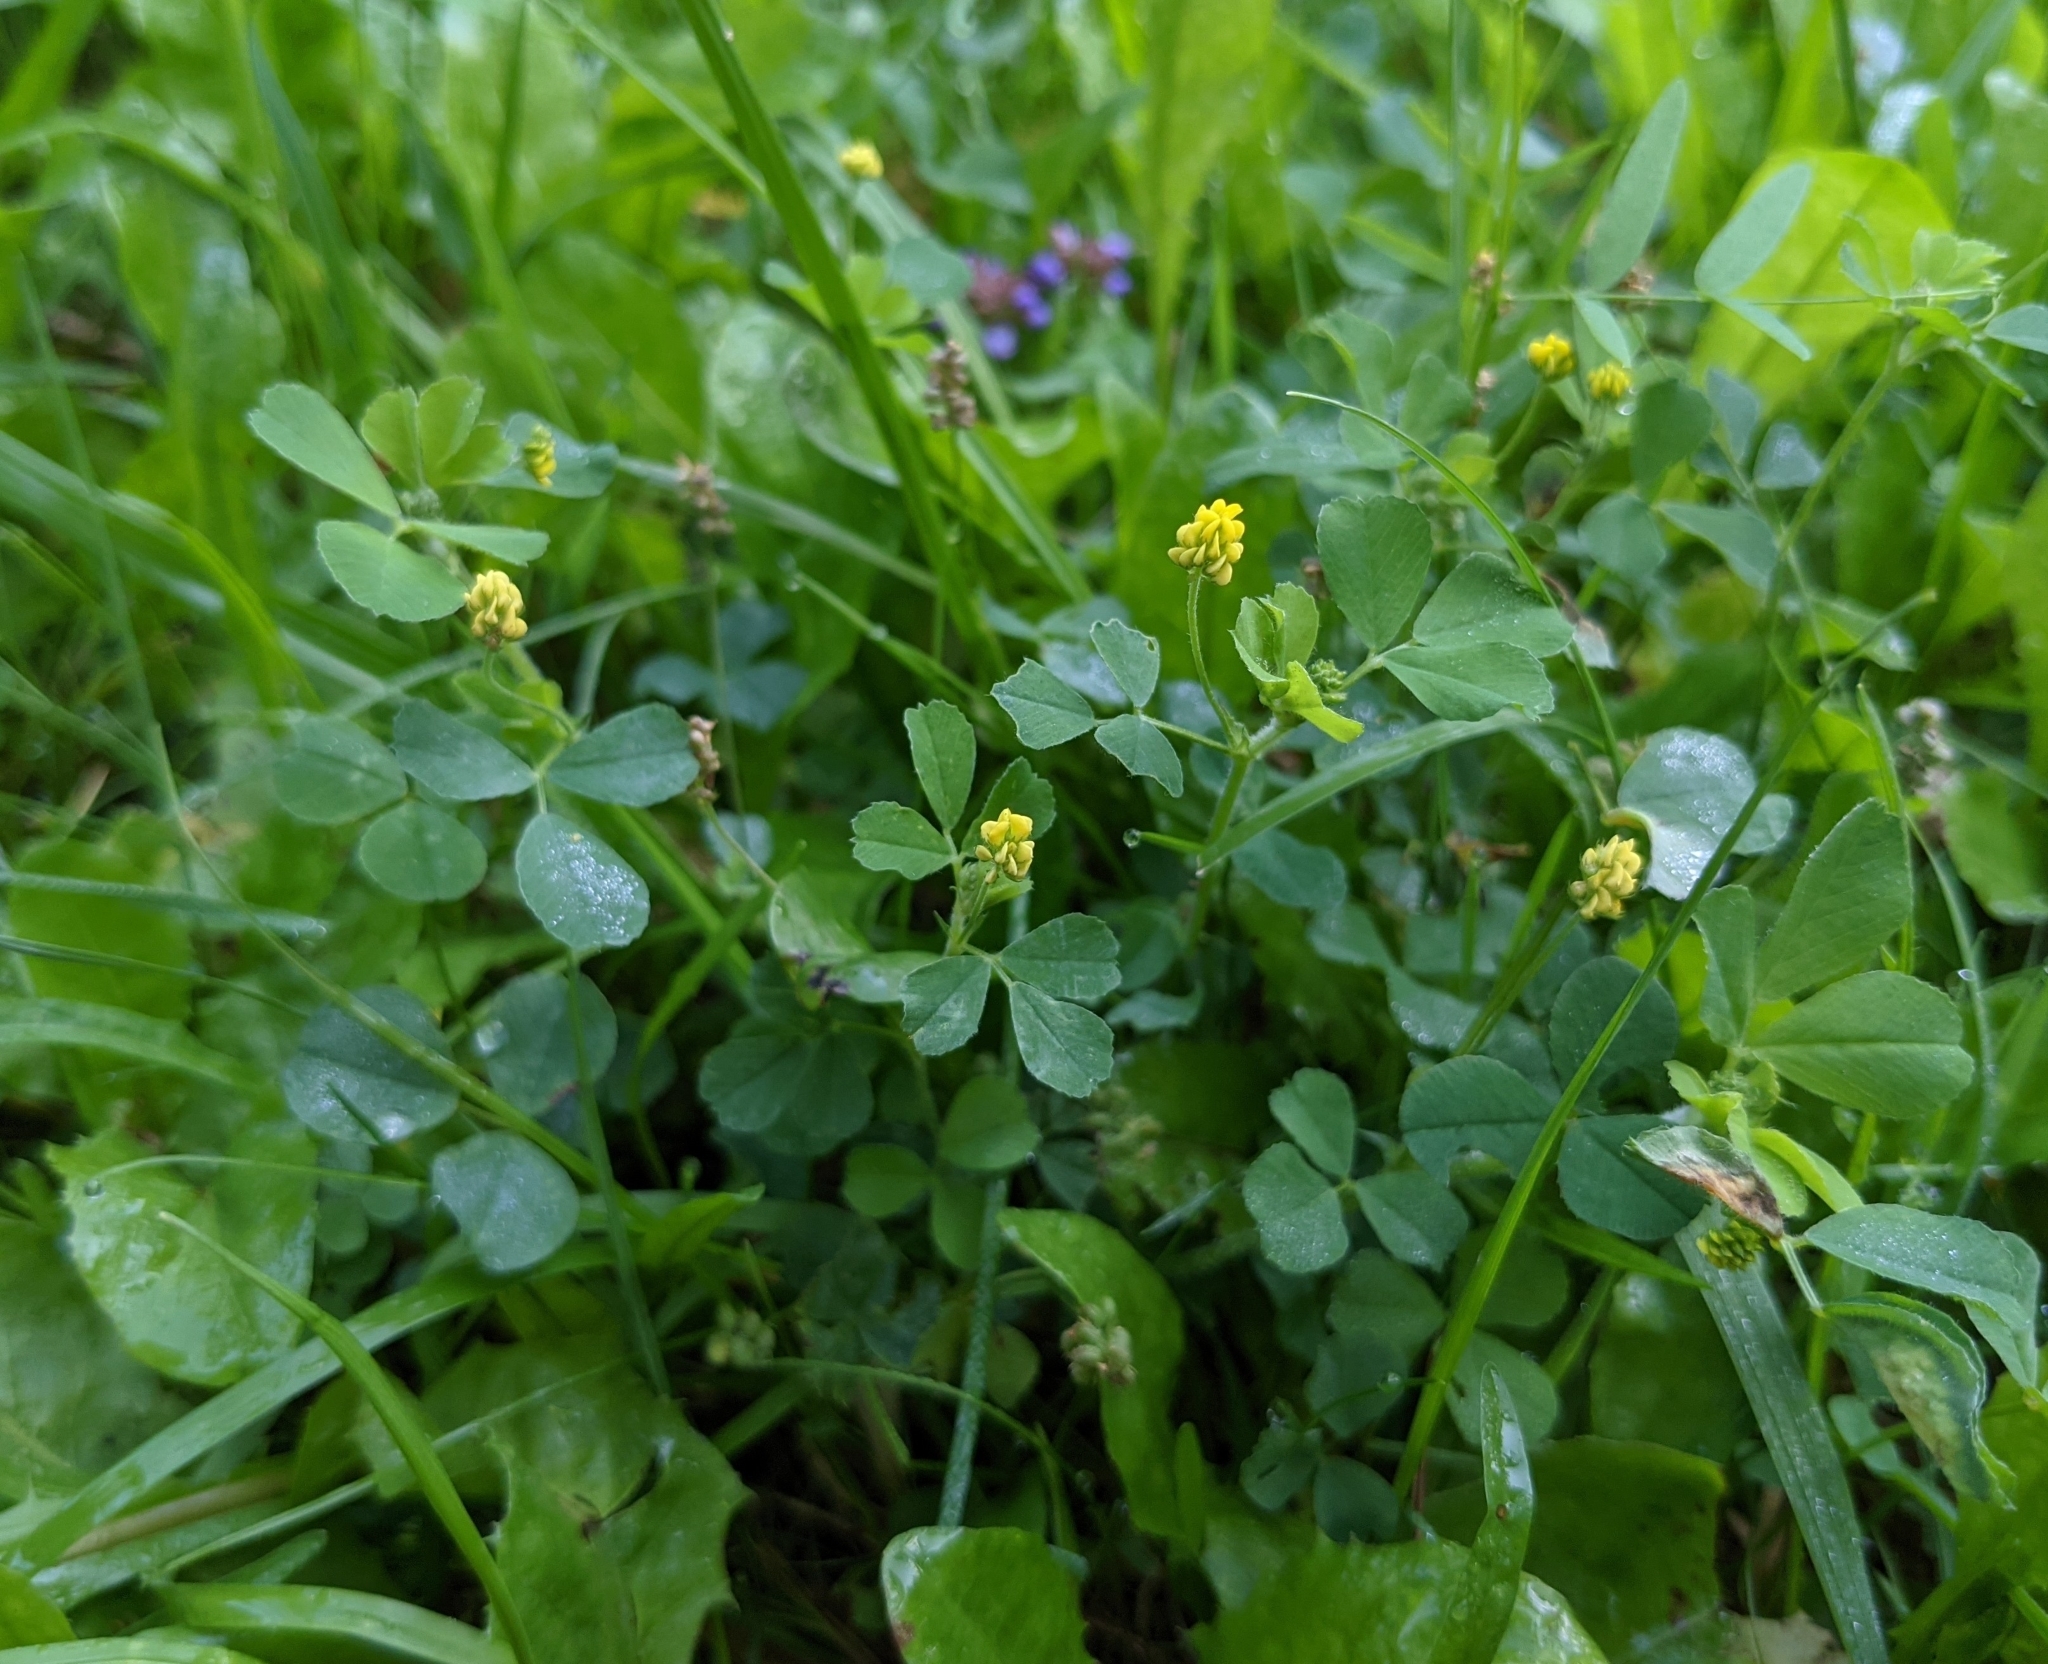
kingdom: Plantae
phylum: Tracheophyta
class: Magnoliopsida
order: Fabales
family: Fabaceae
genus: Medicago
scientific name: Medicago lupulina
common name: Black medick
